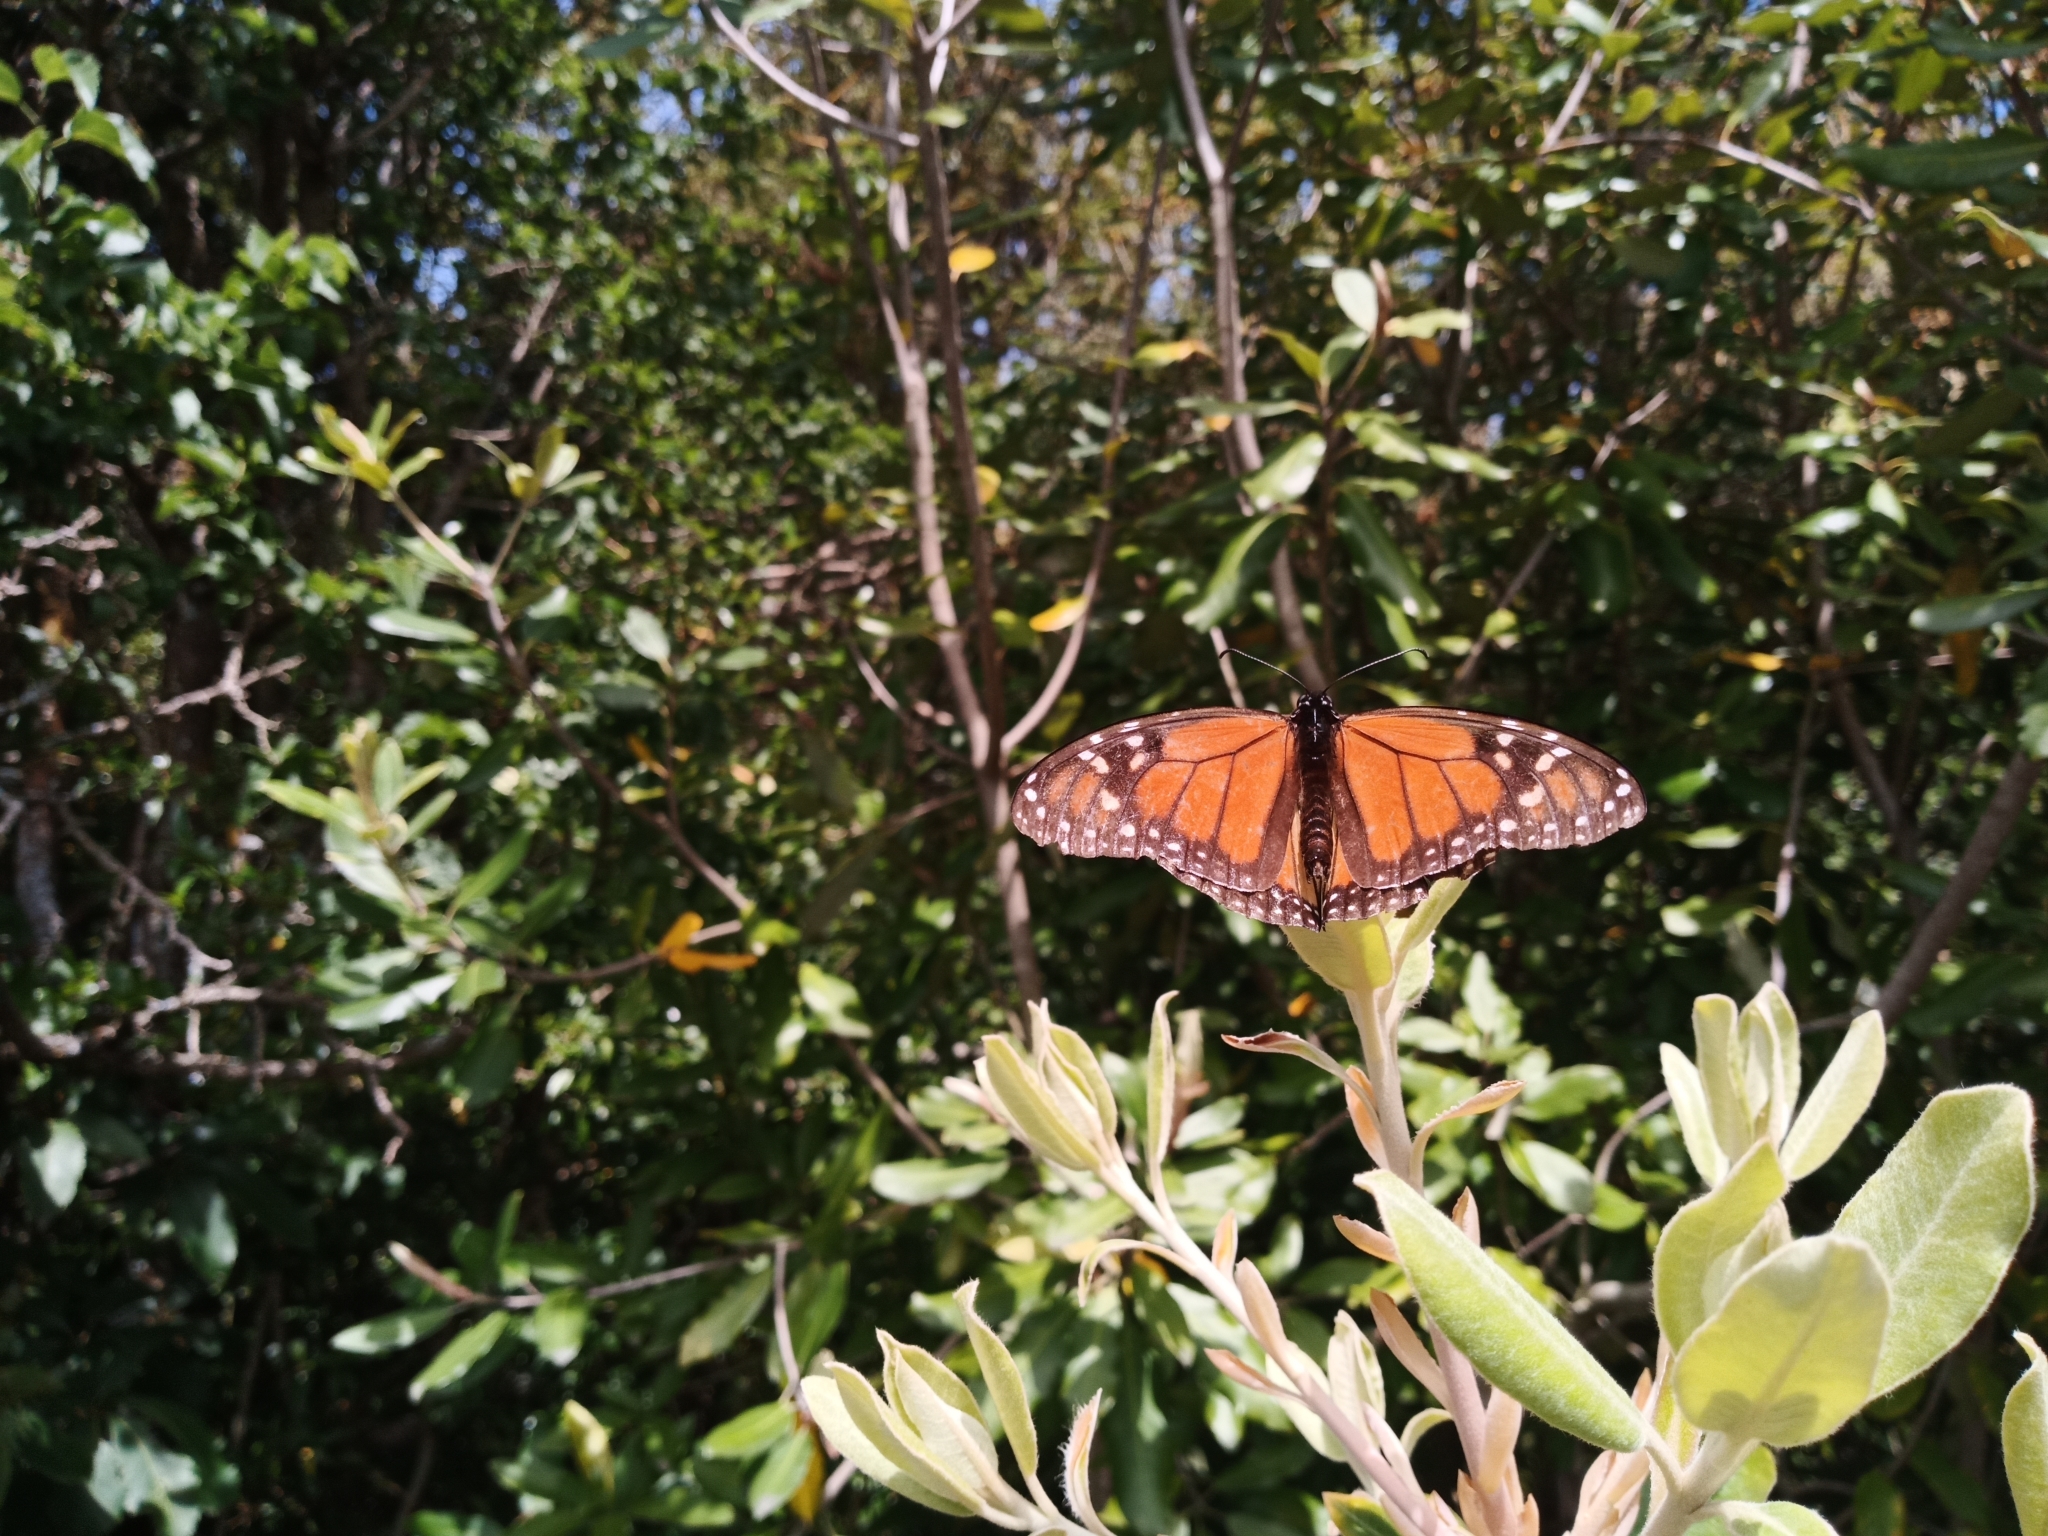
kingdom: Animalia
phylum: Arthropoda
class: Insecta
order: Lepidoptera
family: Nymphalidae
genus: Danaus
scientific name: Danaus plexippus
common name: Monarch
